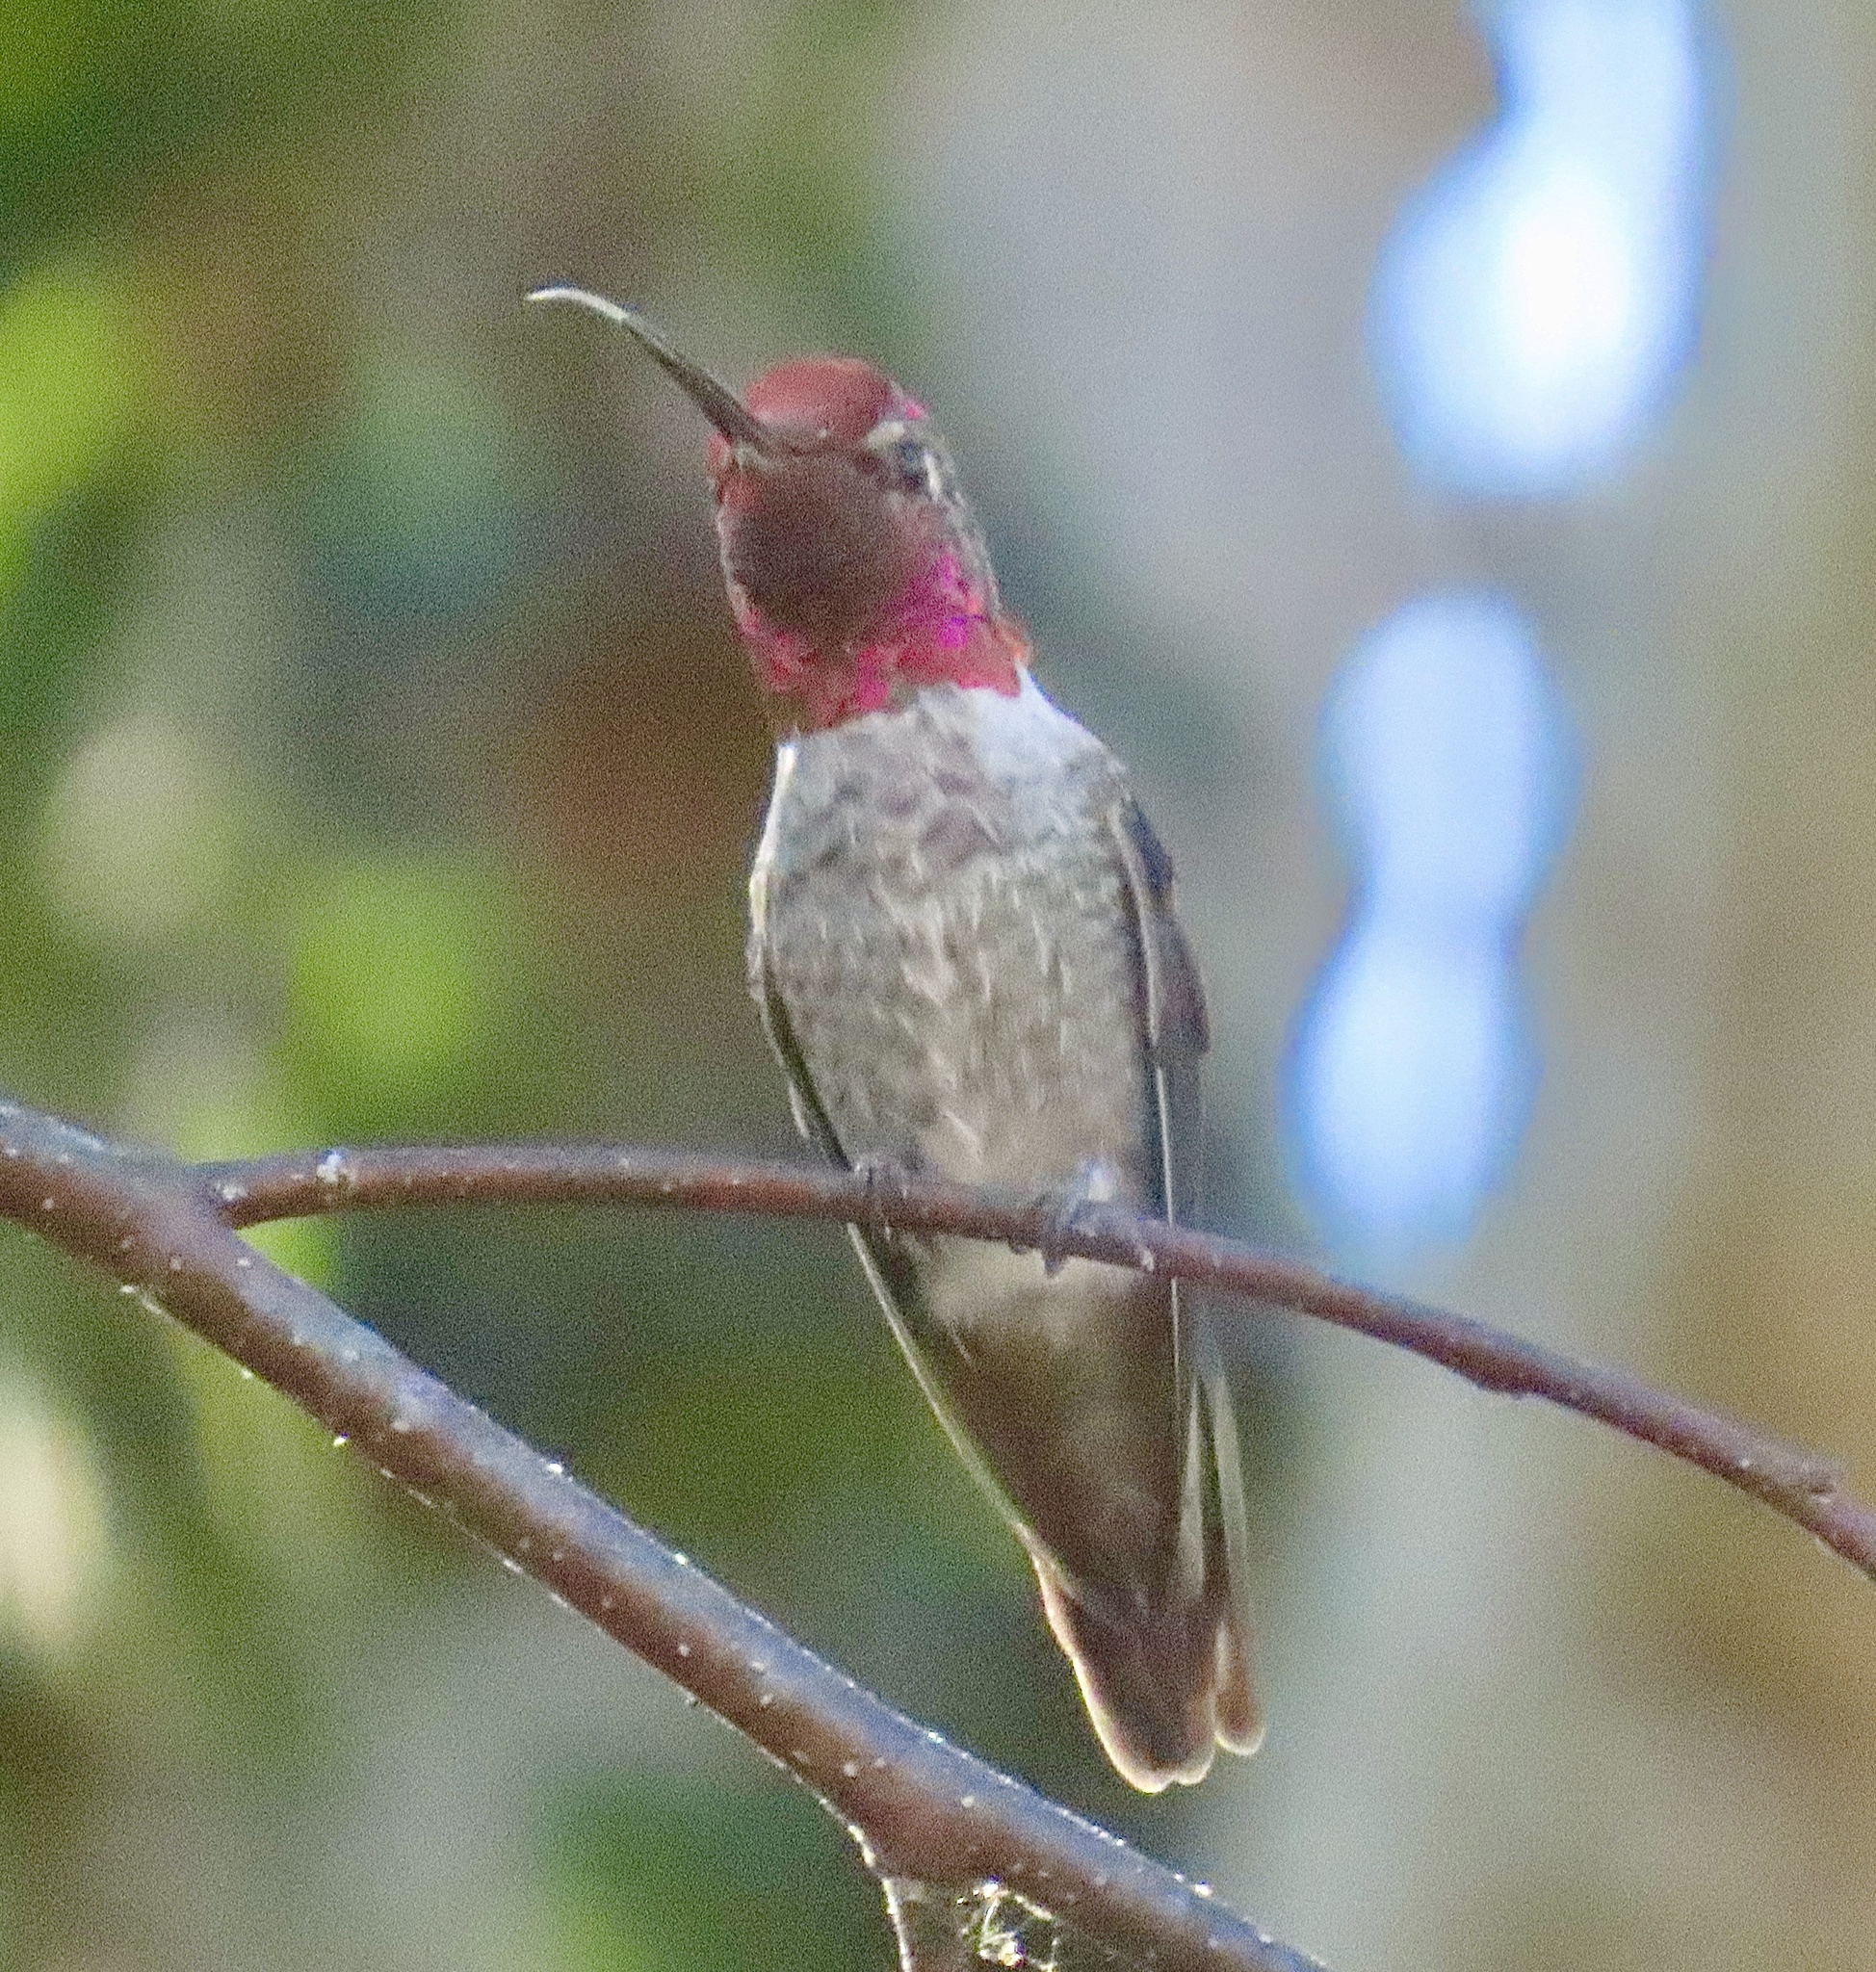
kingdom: Animalia
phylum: Chordata
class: Aves
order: Apodiformes
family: Trochilidae
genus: Calypte
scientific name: Calypte anna
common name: Anna's hummingbird
